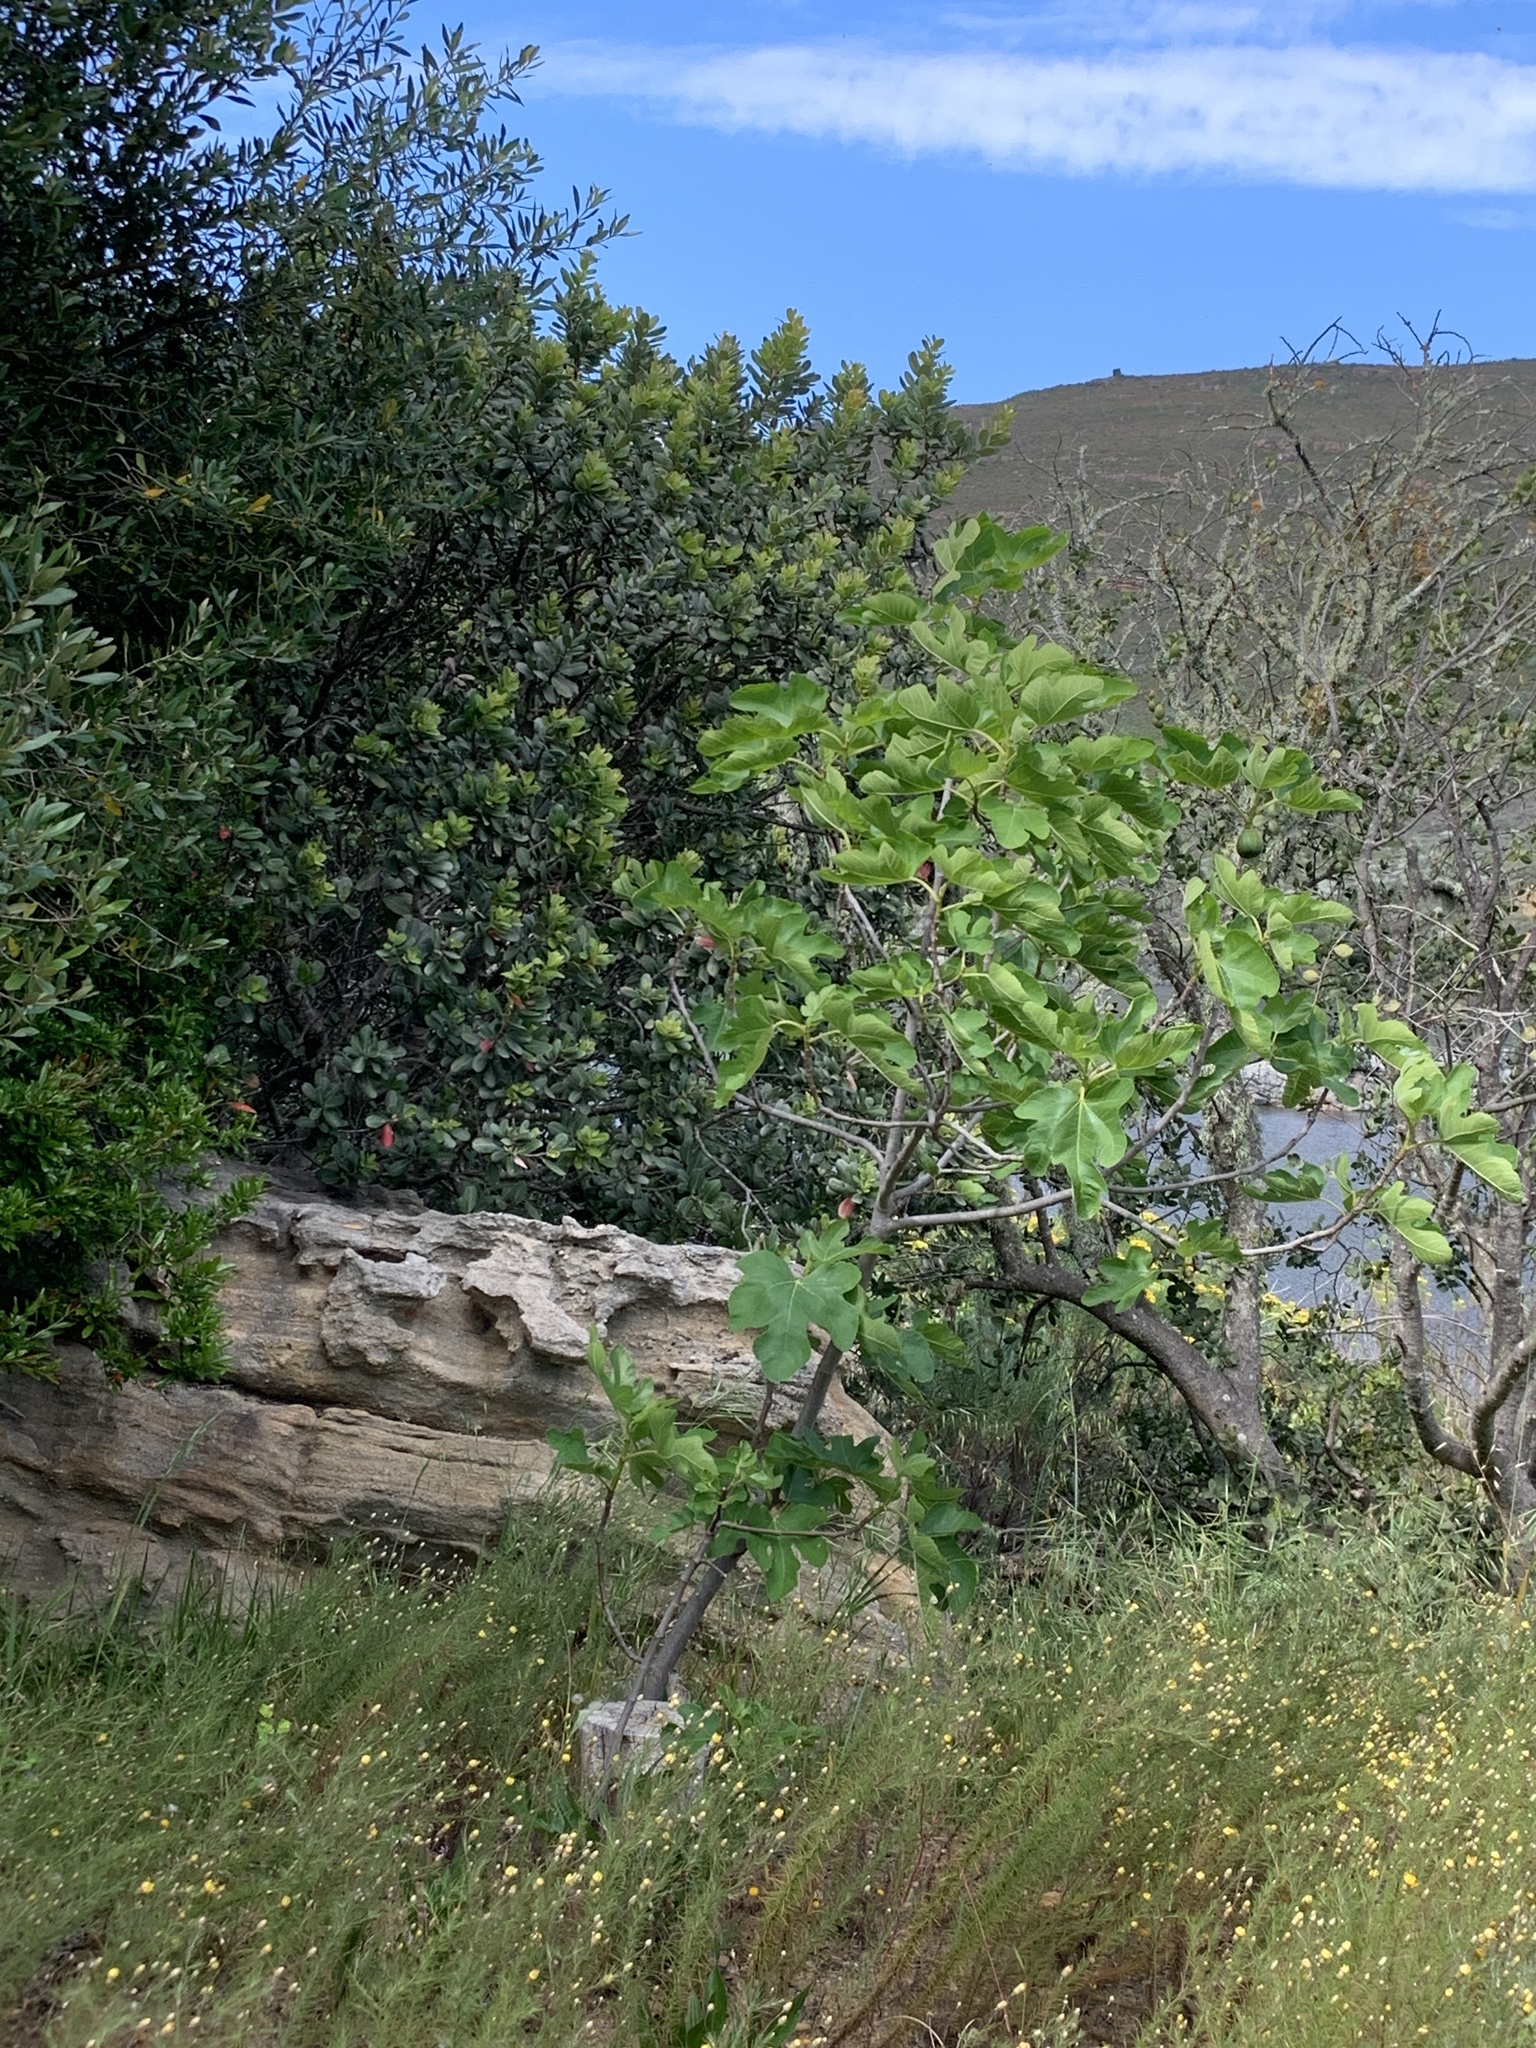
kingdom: Plantae
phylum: Tracheophyta
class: Magnoliopsida
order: Rosales
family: Moraceae
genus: Ficus
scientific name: Ficus carica
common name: Fig
